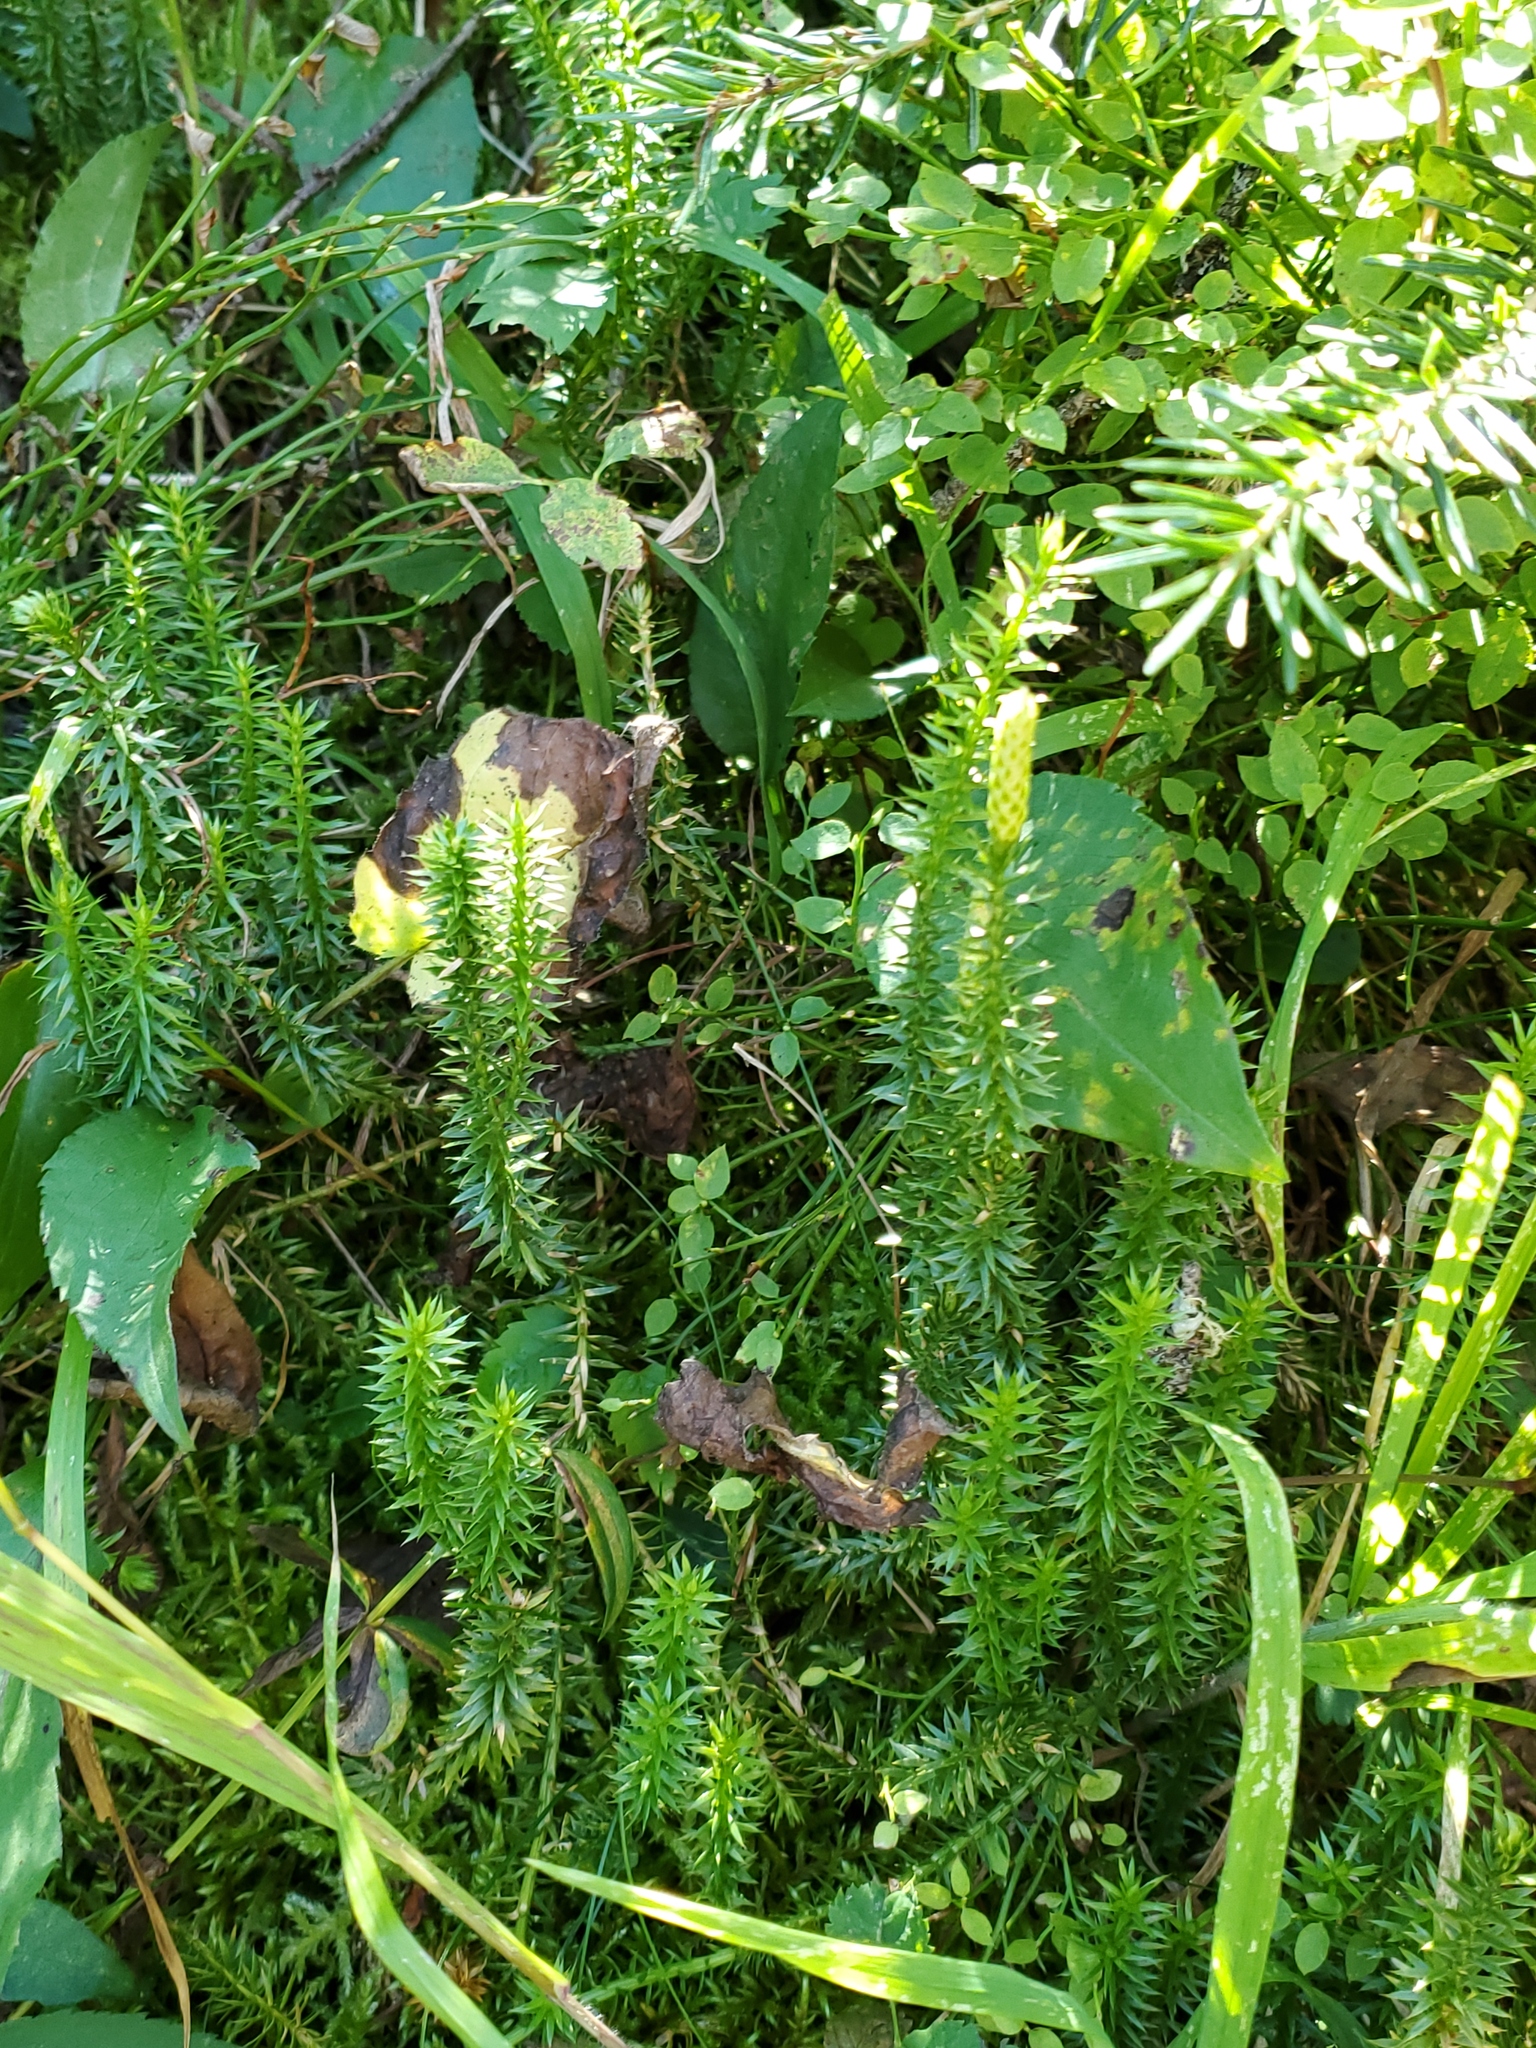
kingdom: Plantae
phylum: Tracheophyta
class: Lycopodiopsida
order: Lycopodiales
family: Lycopodiaceae
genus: Spinulum
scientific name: Spinulum annotinum
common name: Interrupted club-moss
